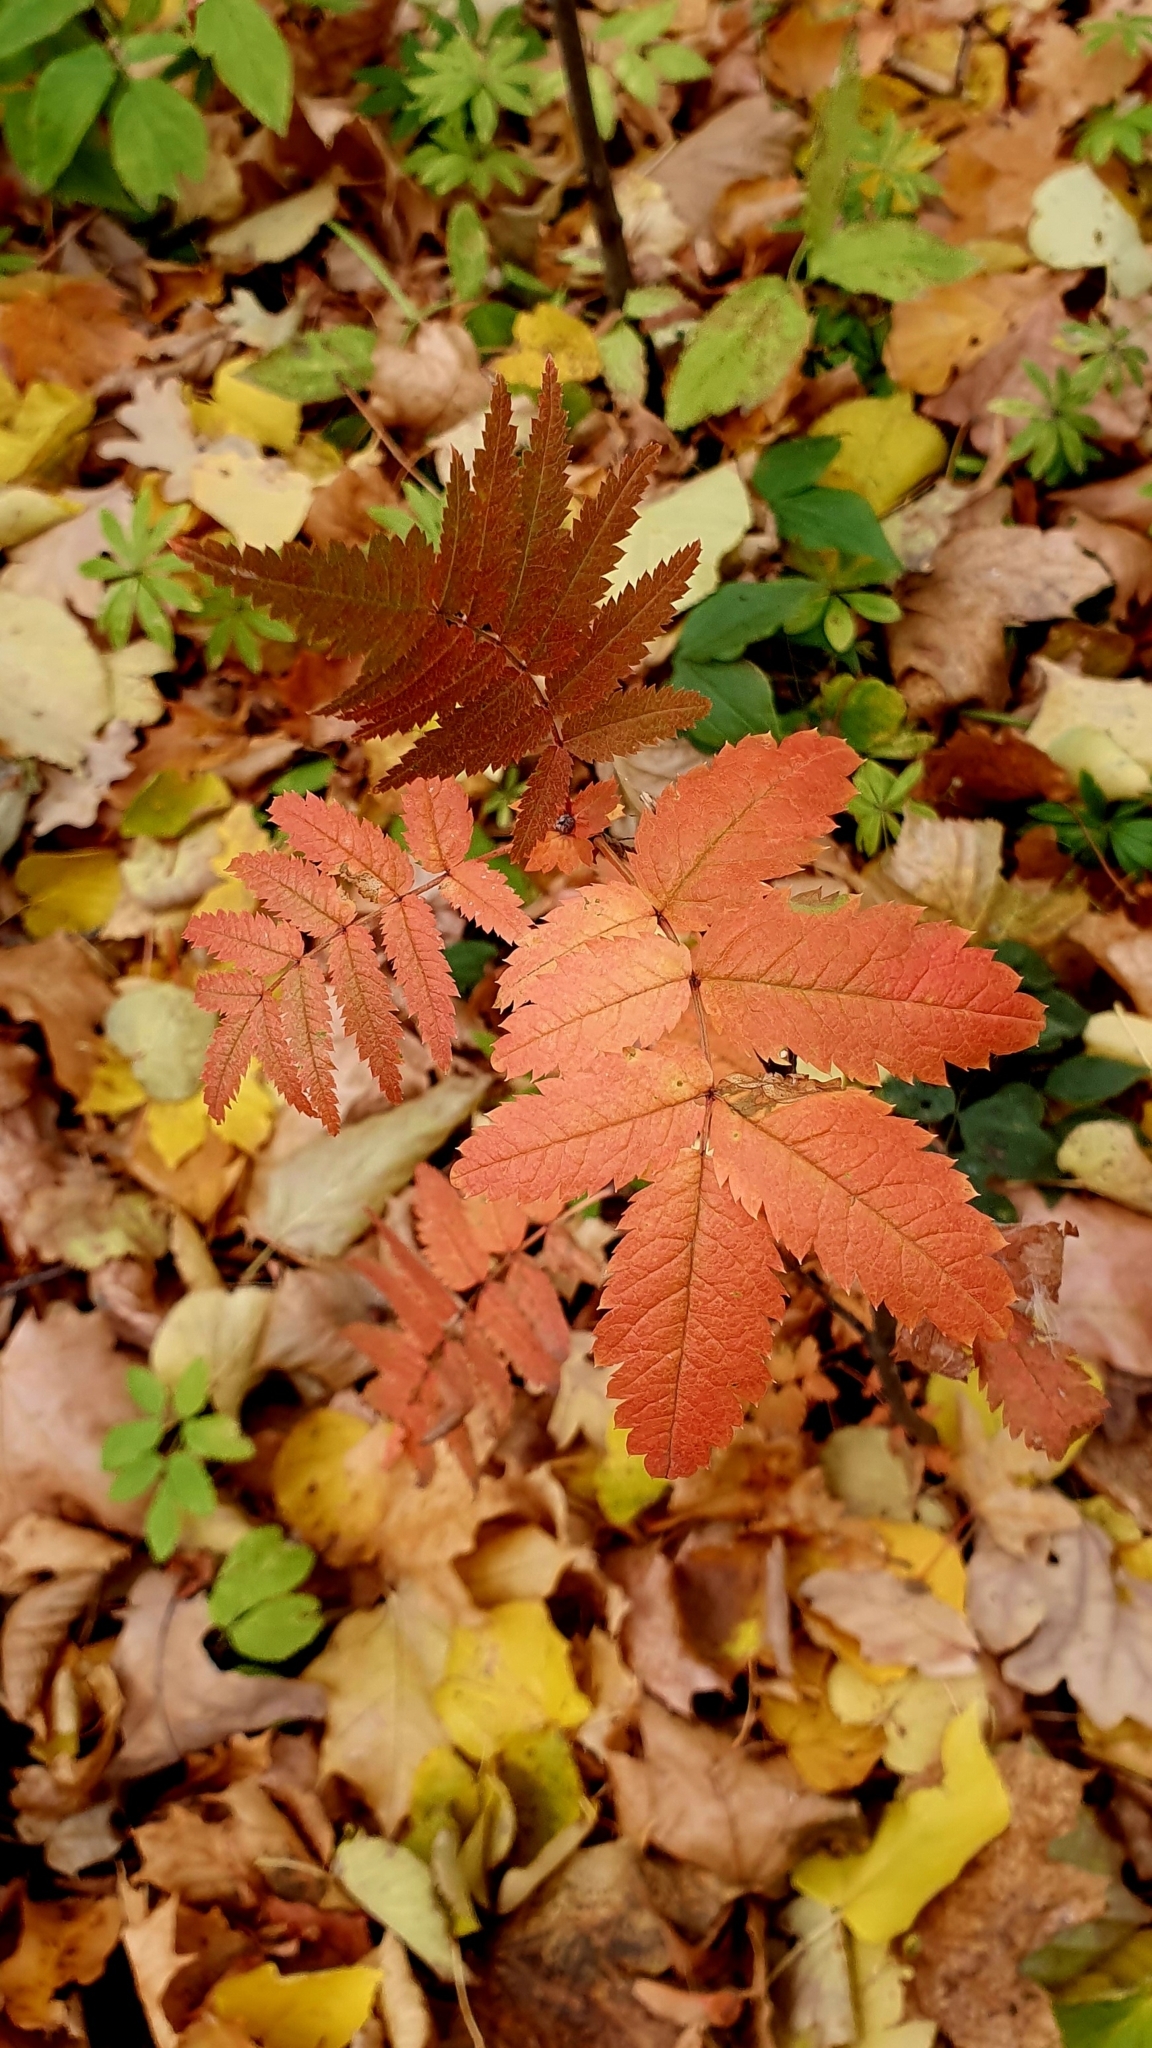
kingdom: Plantae
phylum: Tracheophyta
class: Magnoliopsida
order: Rosales
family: Rosaceae
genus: Sorbus
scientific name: Sorbus aucuparia
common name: Rowan
